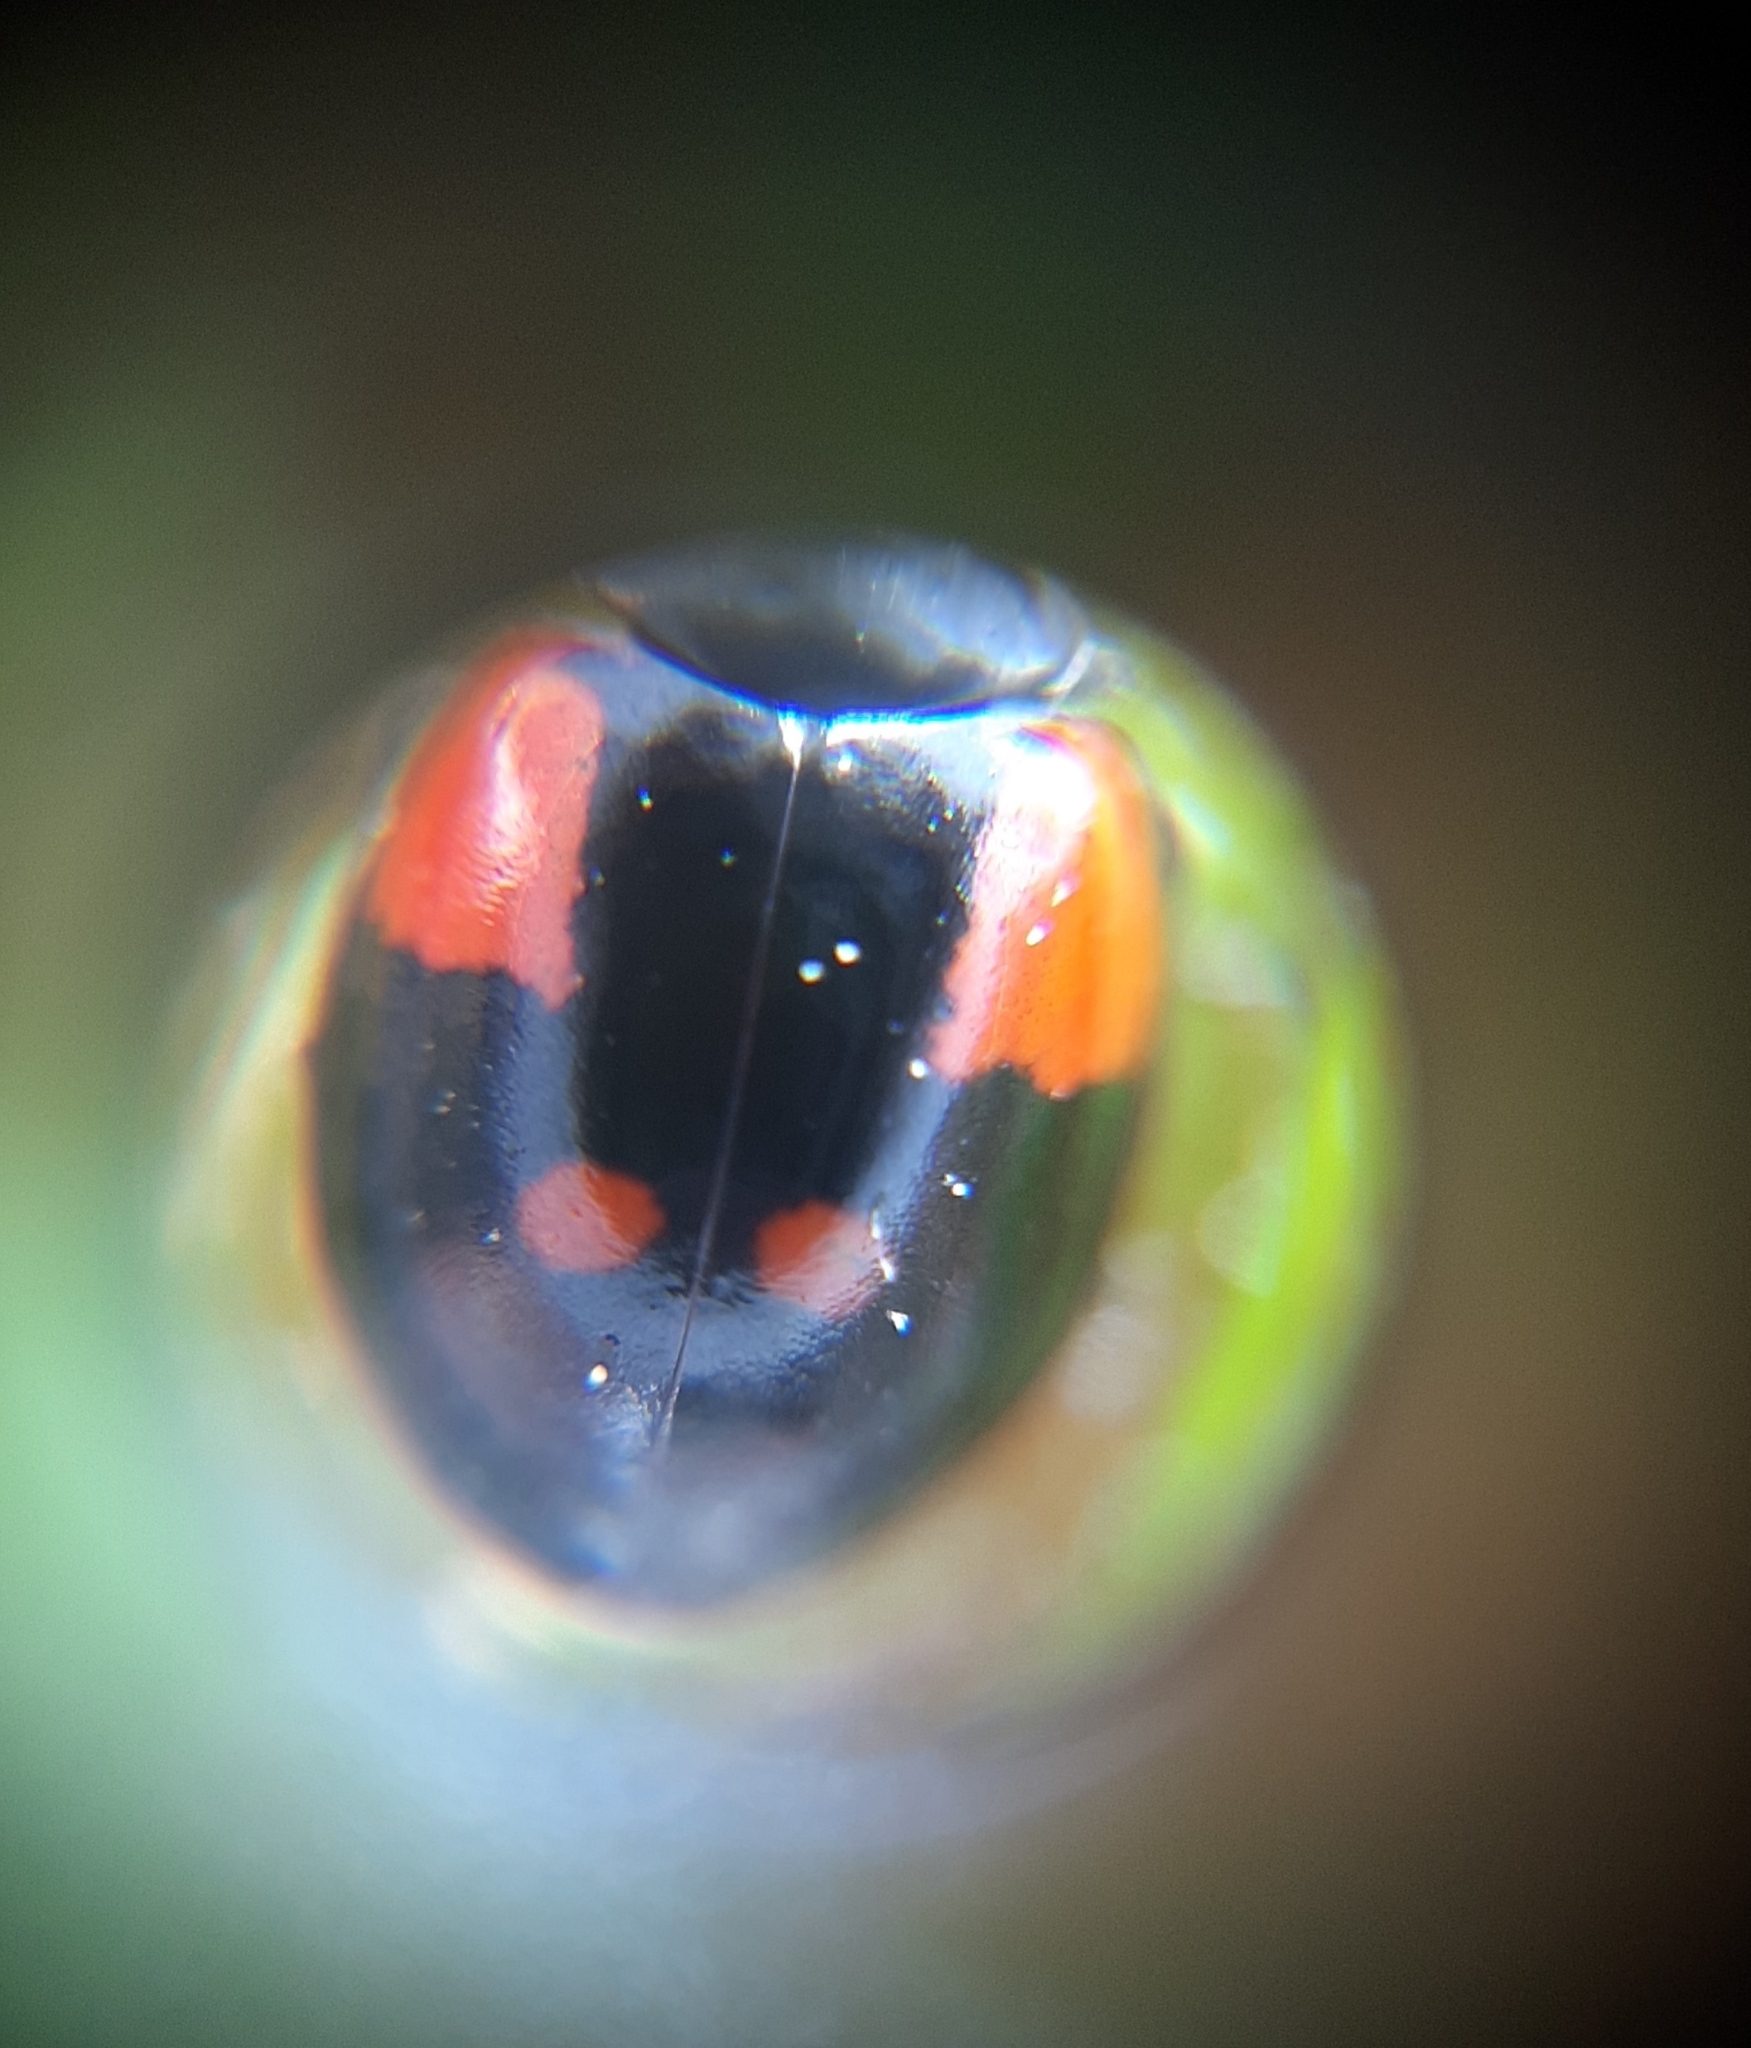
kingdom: Animalia
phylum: Arthropoda
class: Insecta
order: Coleoptera
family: Coccinellidae
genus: Adalia
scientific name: Adalia bipunctata
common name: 2-spot ladybird
